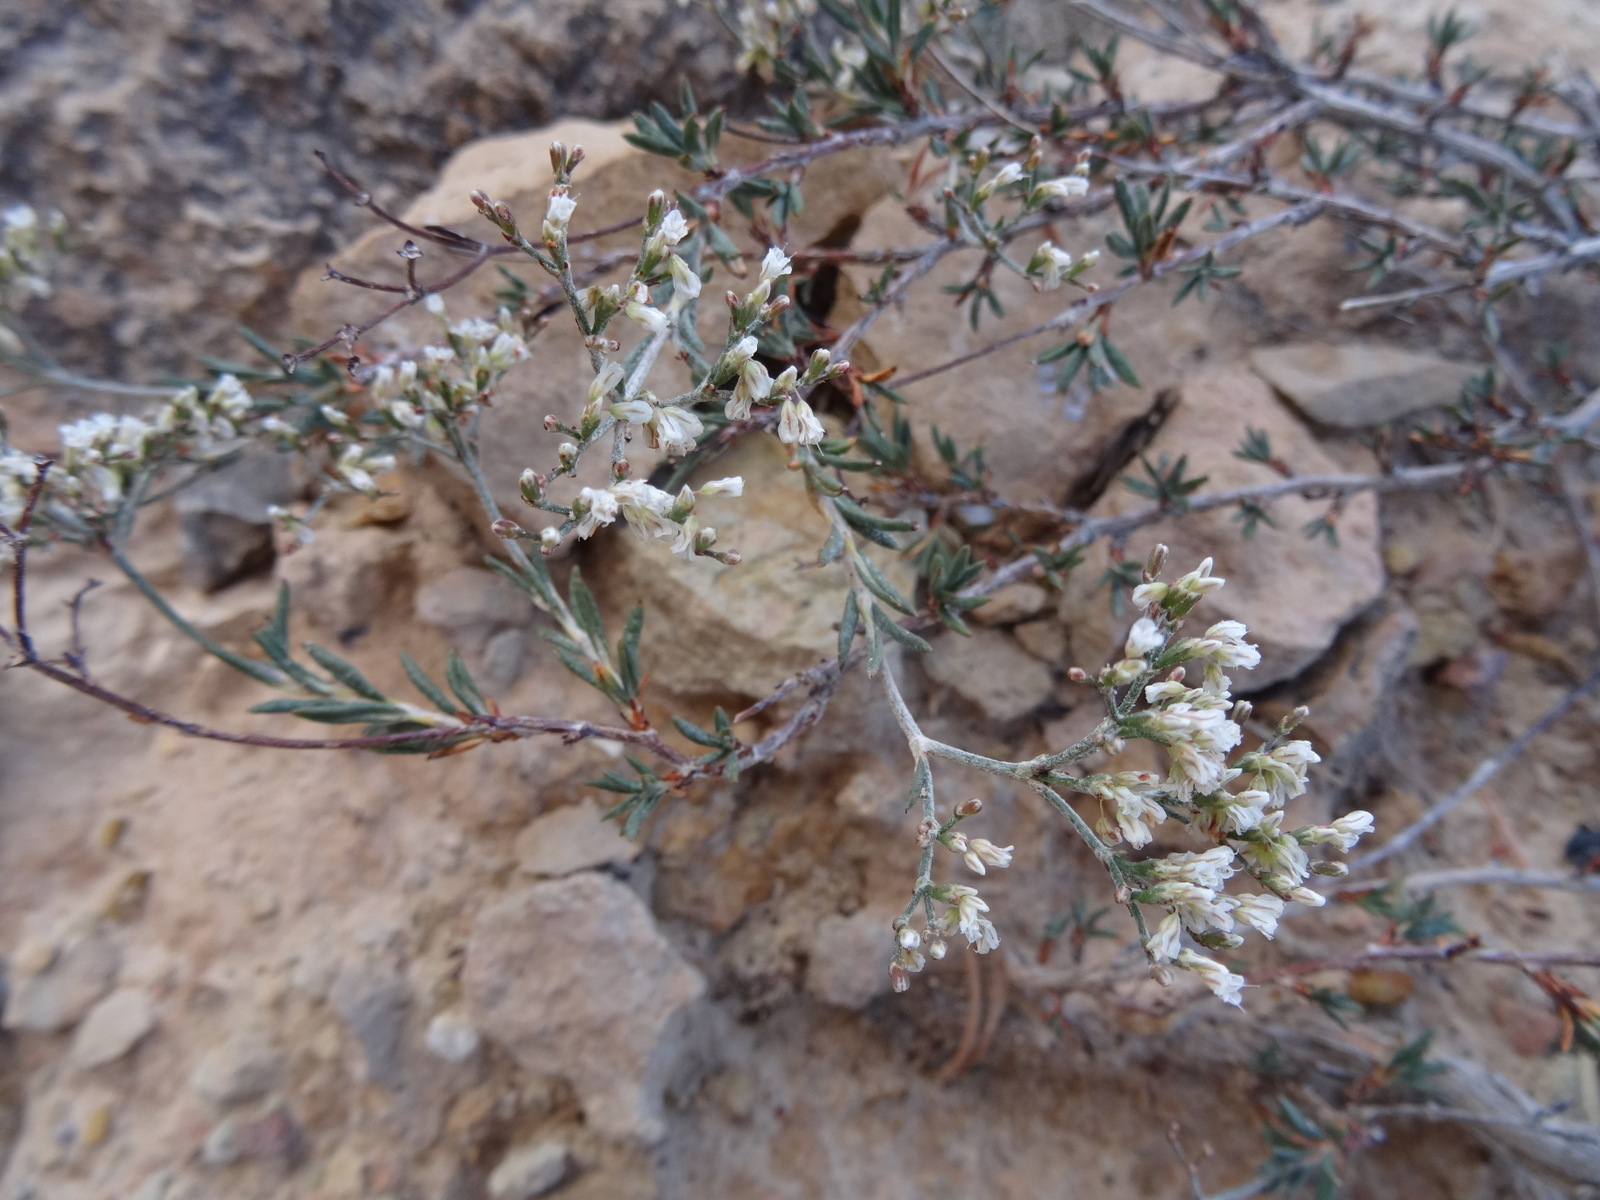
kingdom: Plantae
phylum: Tracheophyta
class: Magnoliopsida
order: Caryophyllales
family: Polygonaceae
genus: Eriogonum
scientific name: Eriogonum microtheca
